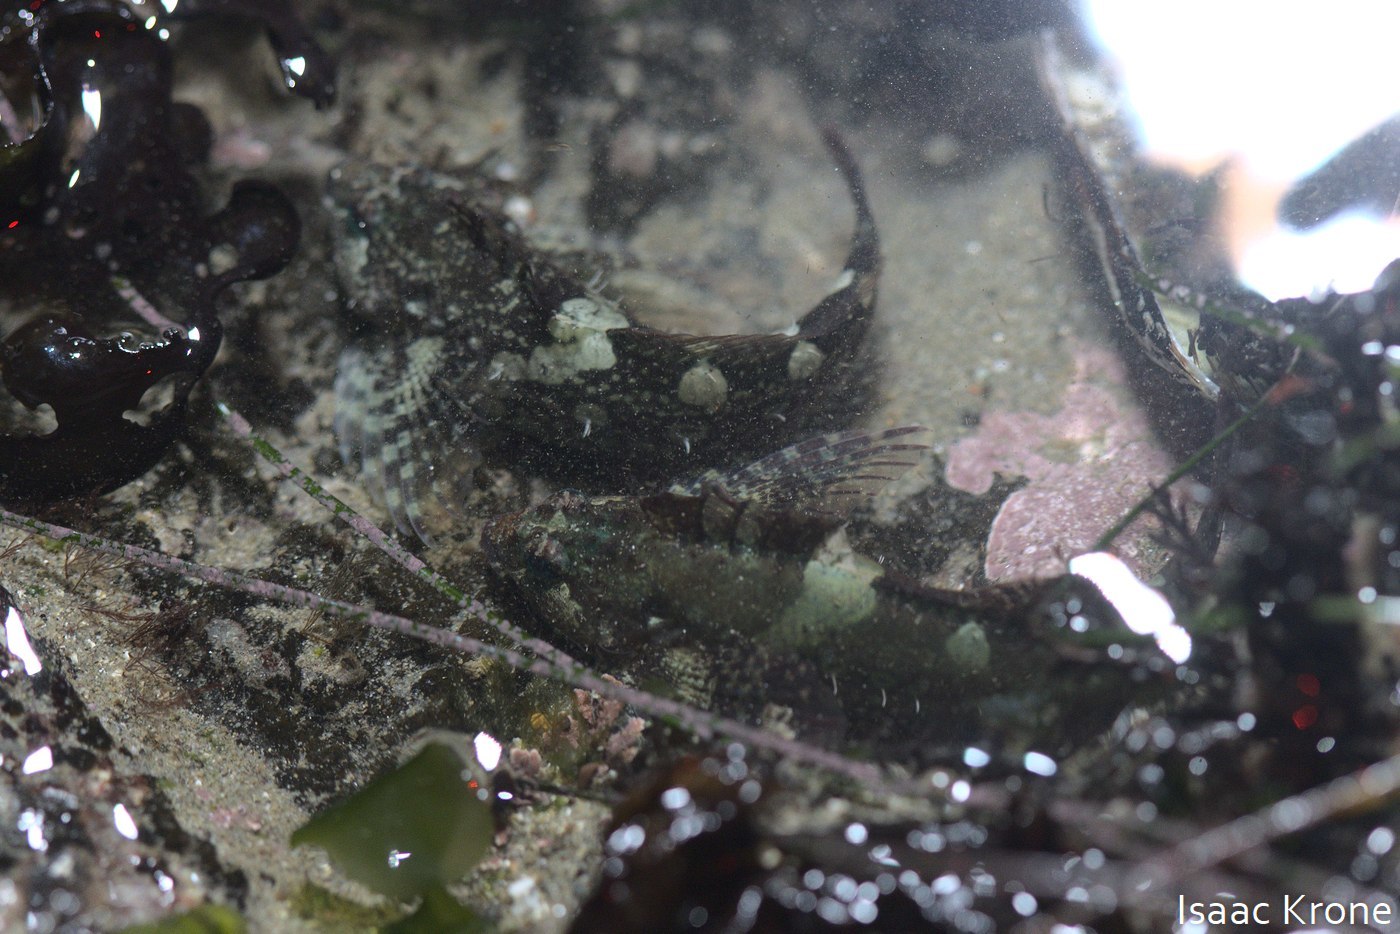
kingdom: Animalia
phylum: Chordata
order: Scorpaeniformes
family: Cottidae
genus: Oligocottus
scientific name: Oligocottus snyderi
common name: Fluffy sculpin
